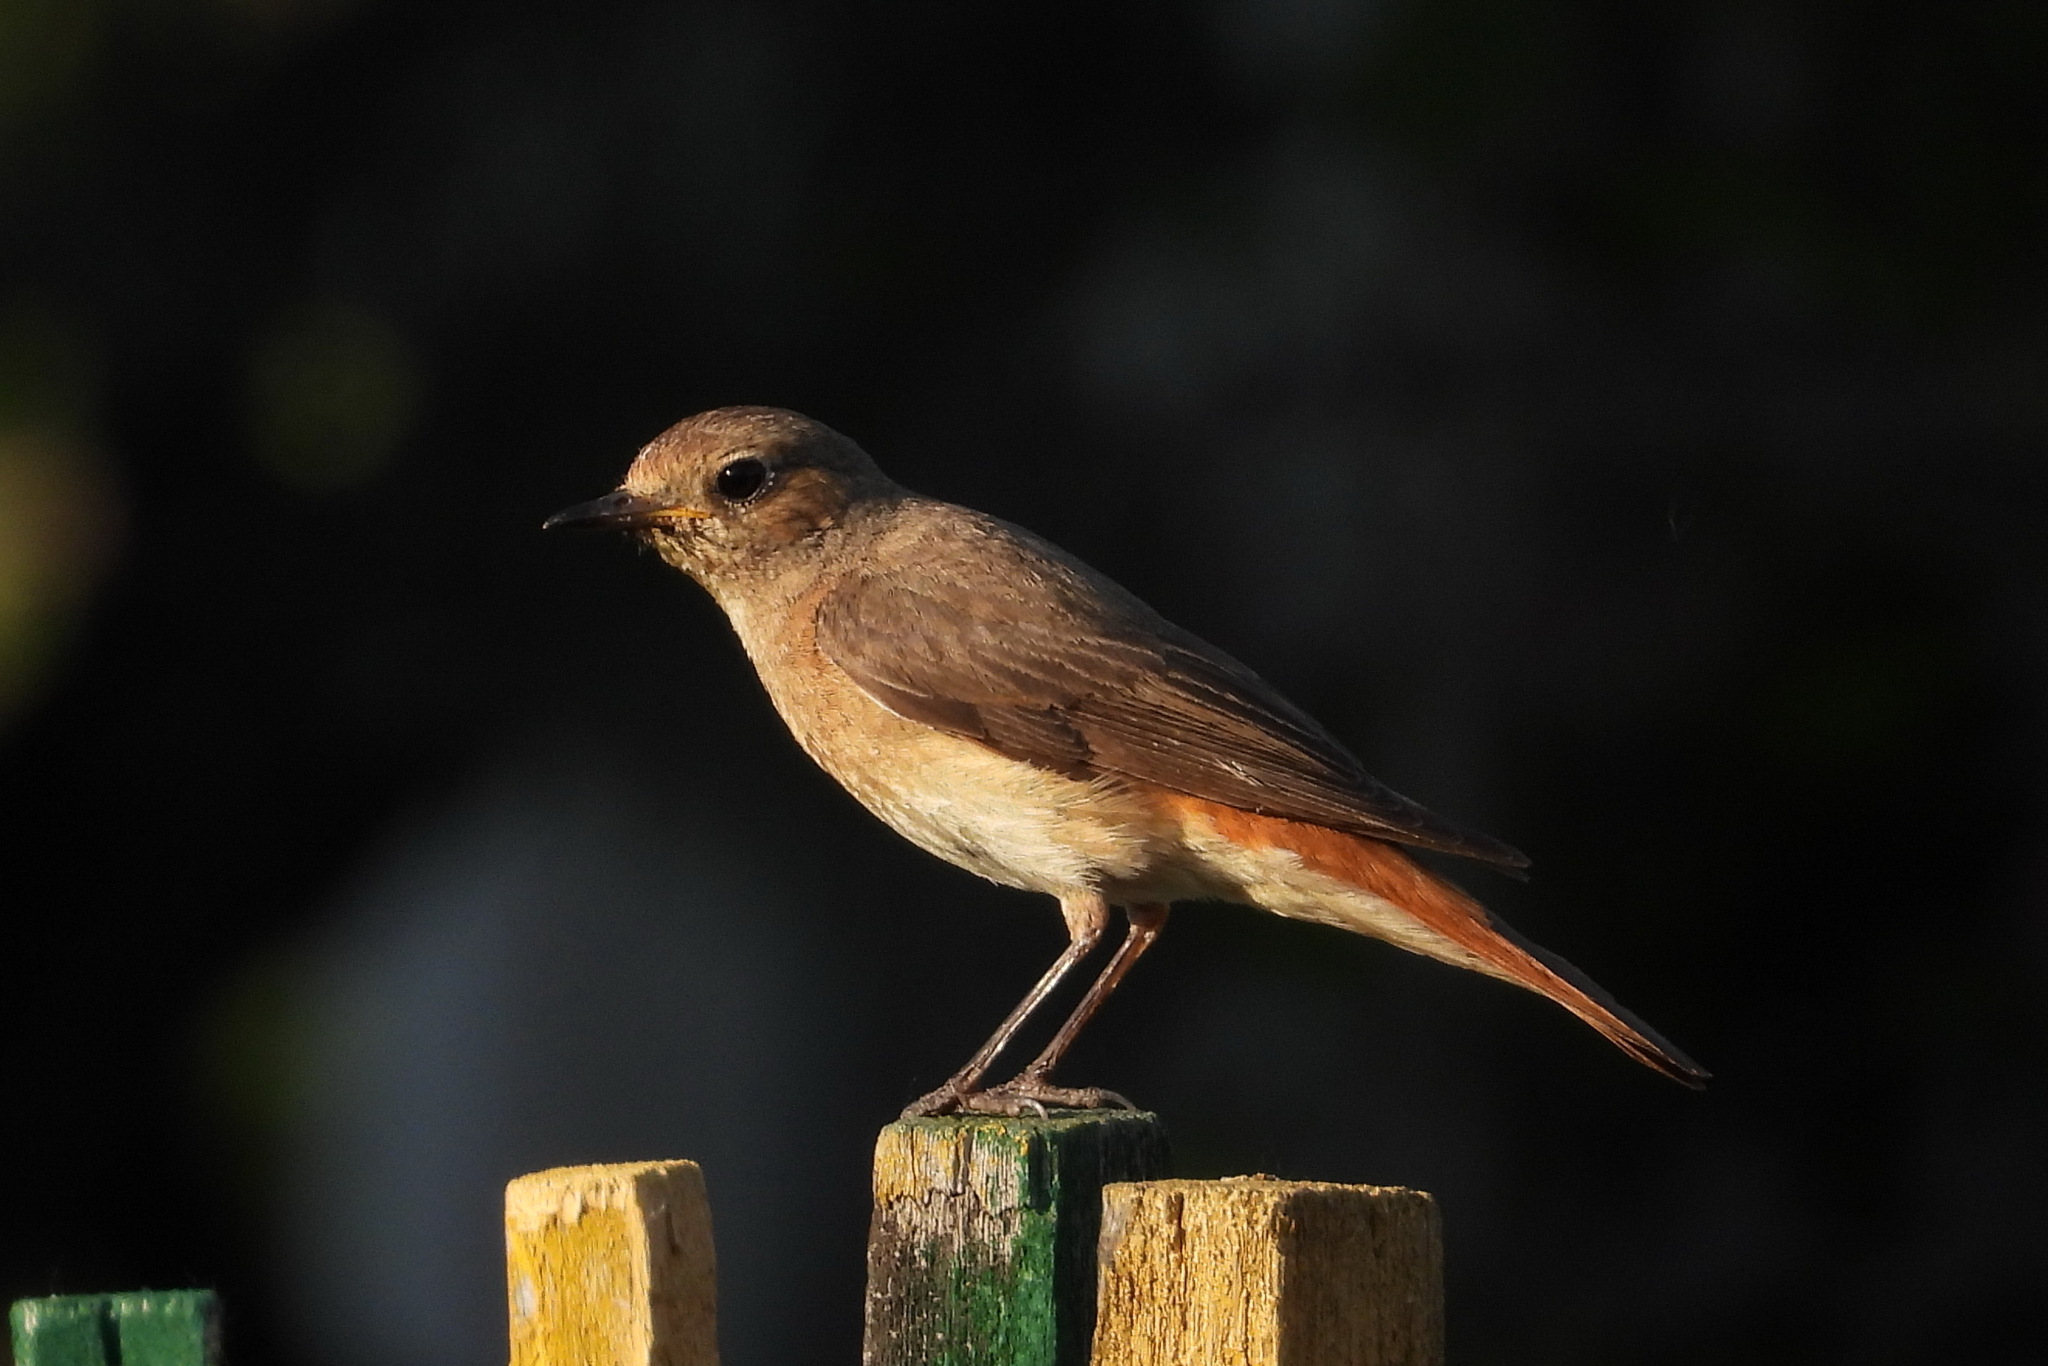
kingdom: Animalia
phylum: Chordata
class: Aves
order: Passeriformes
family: Muscicapidae
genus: Phoenicurus
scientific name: Phoenicurus phoenicurus
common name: Common redstart
